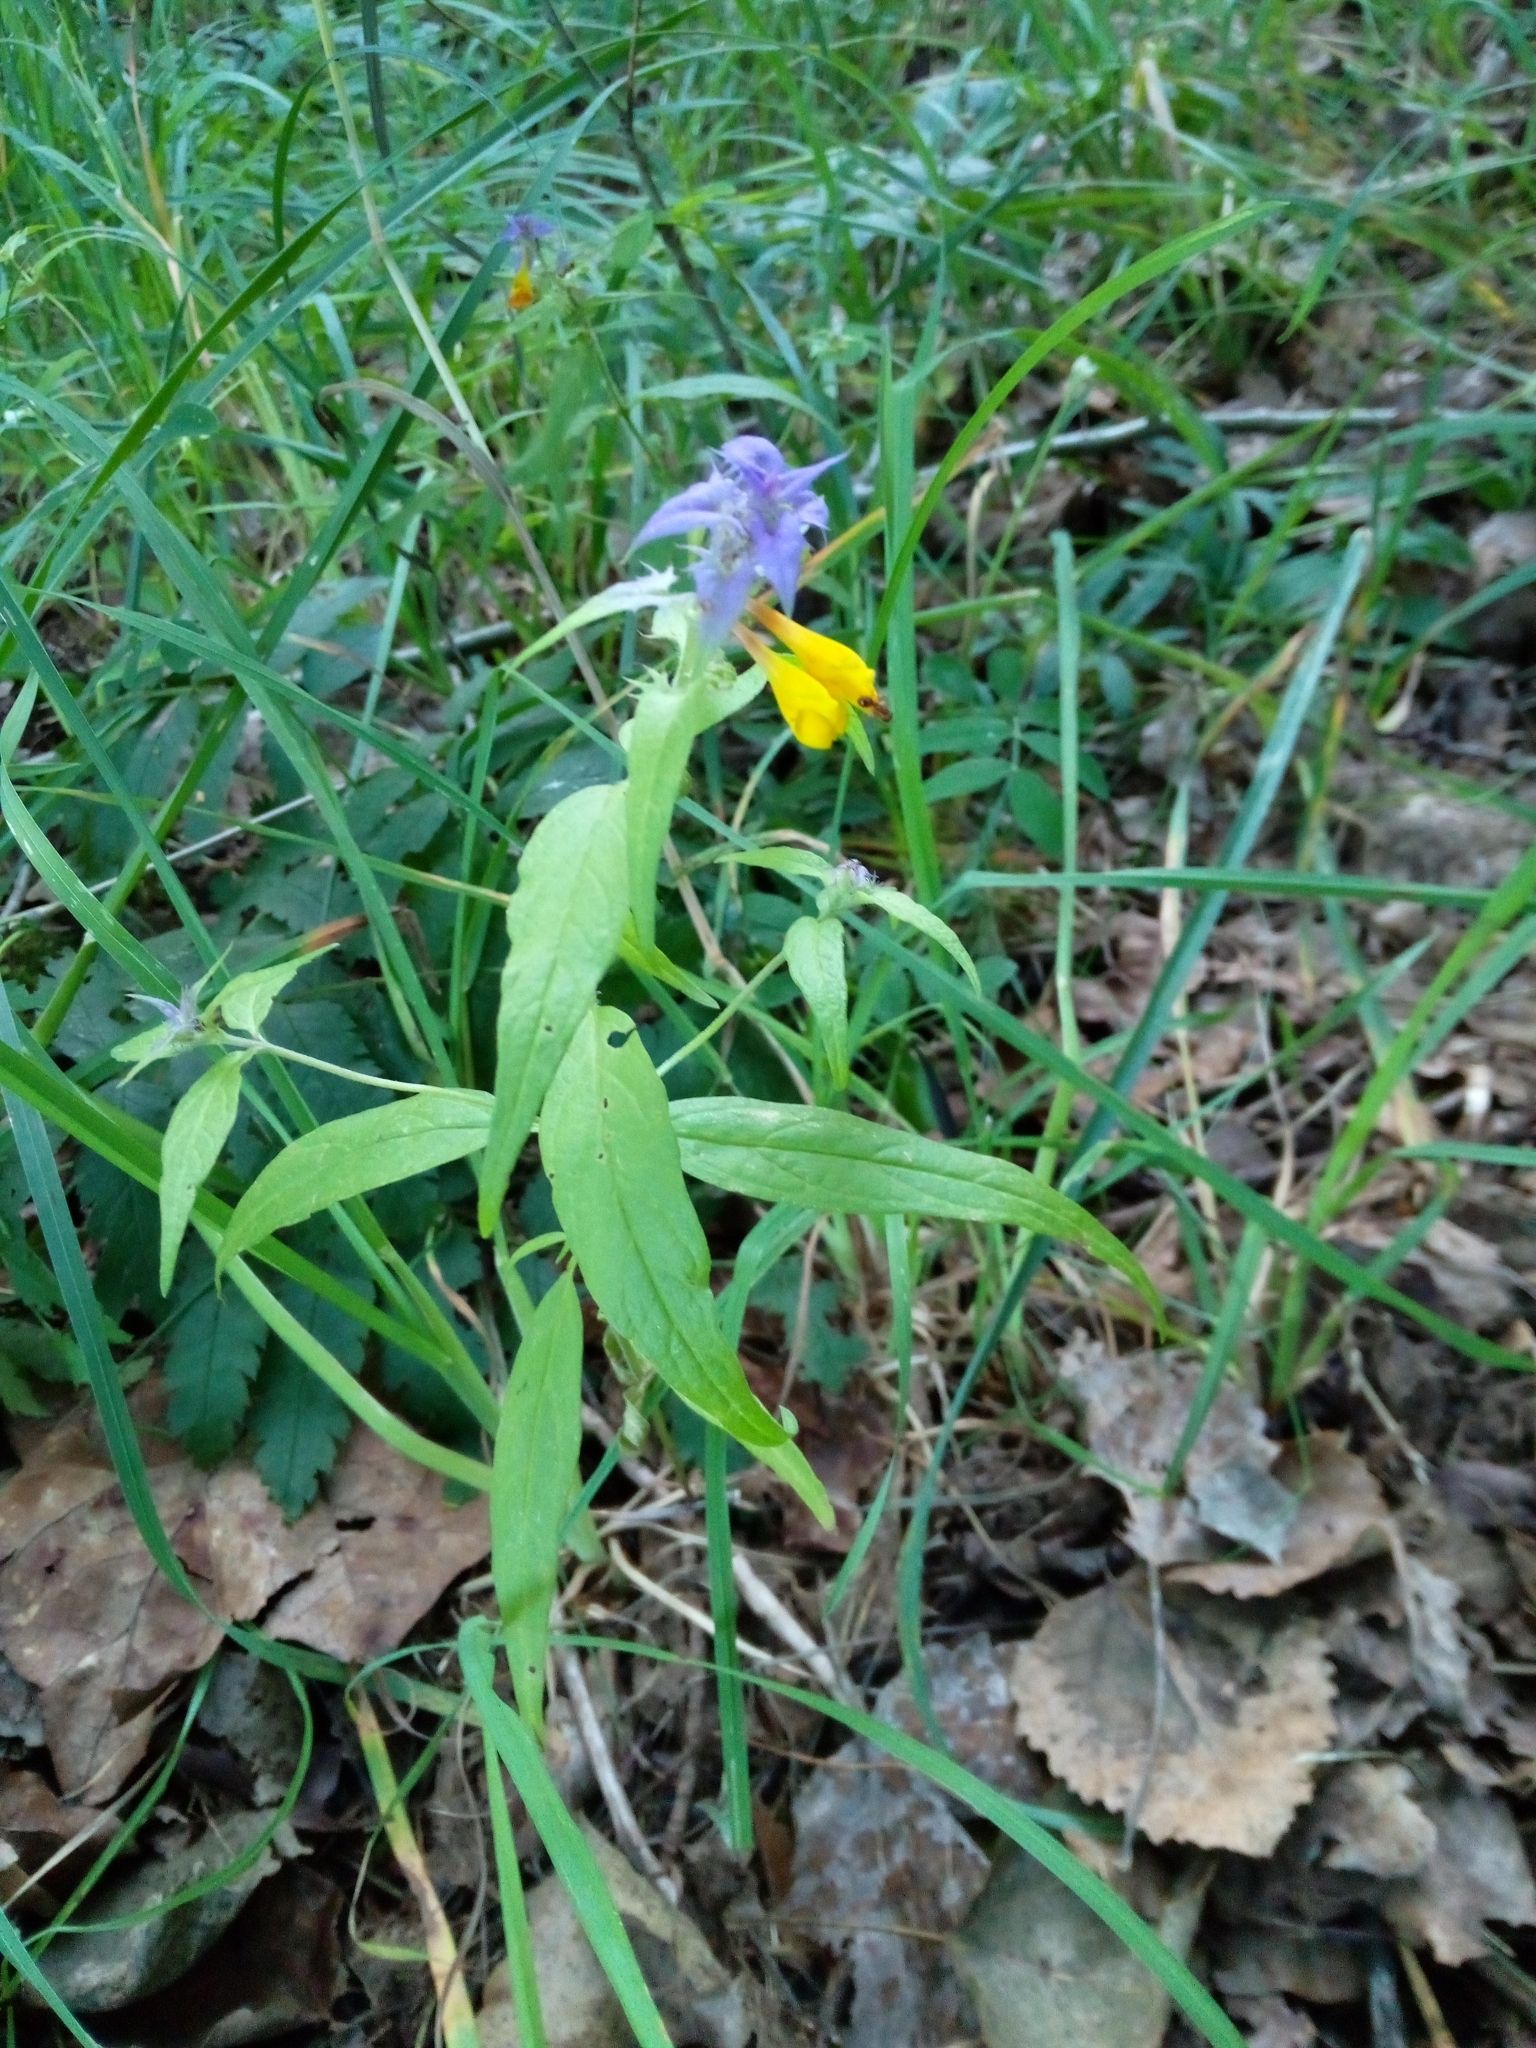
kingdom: Plantae
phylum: Tracheophyta
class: Magnoliopsida
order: Lamiales
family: Orobanchaceae
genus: Melampyrum
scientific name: Melampyrum nemorosum
